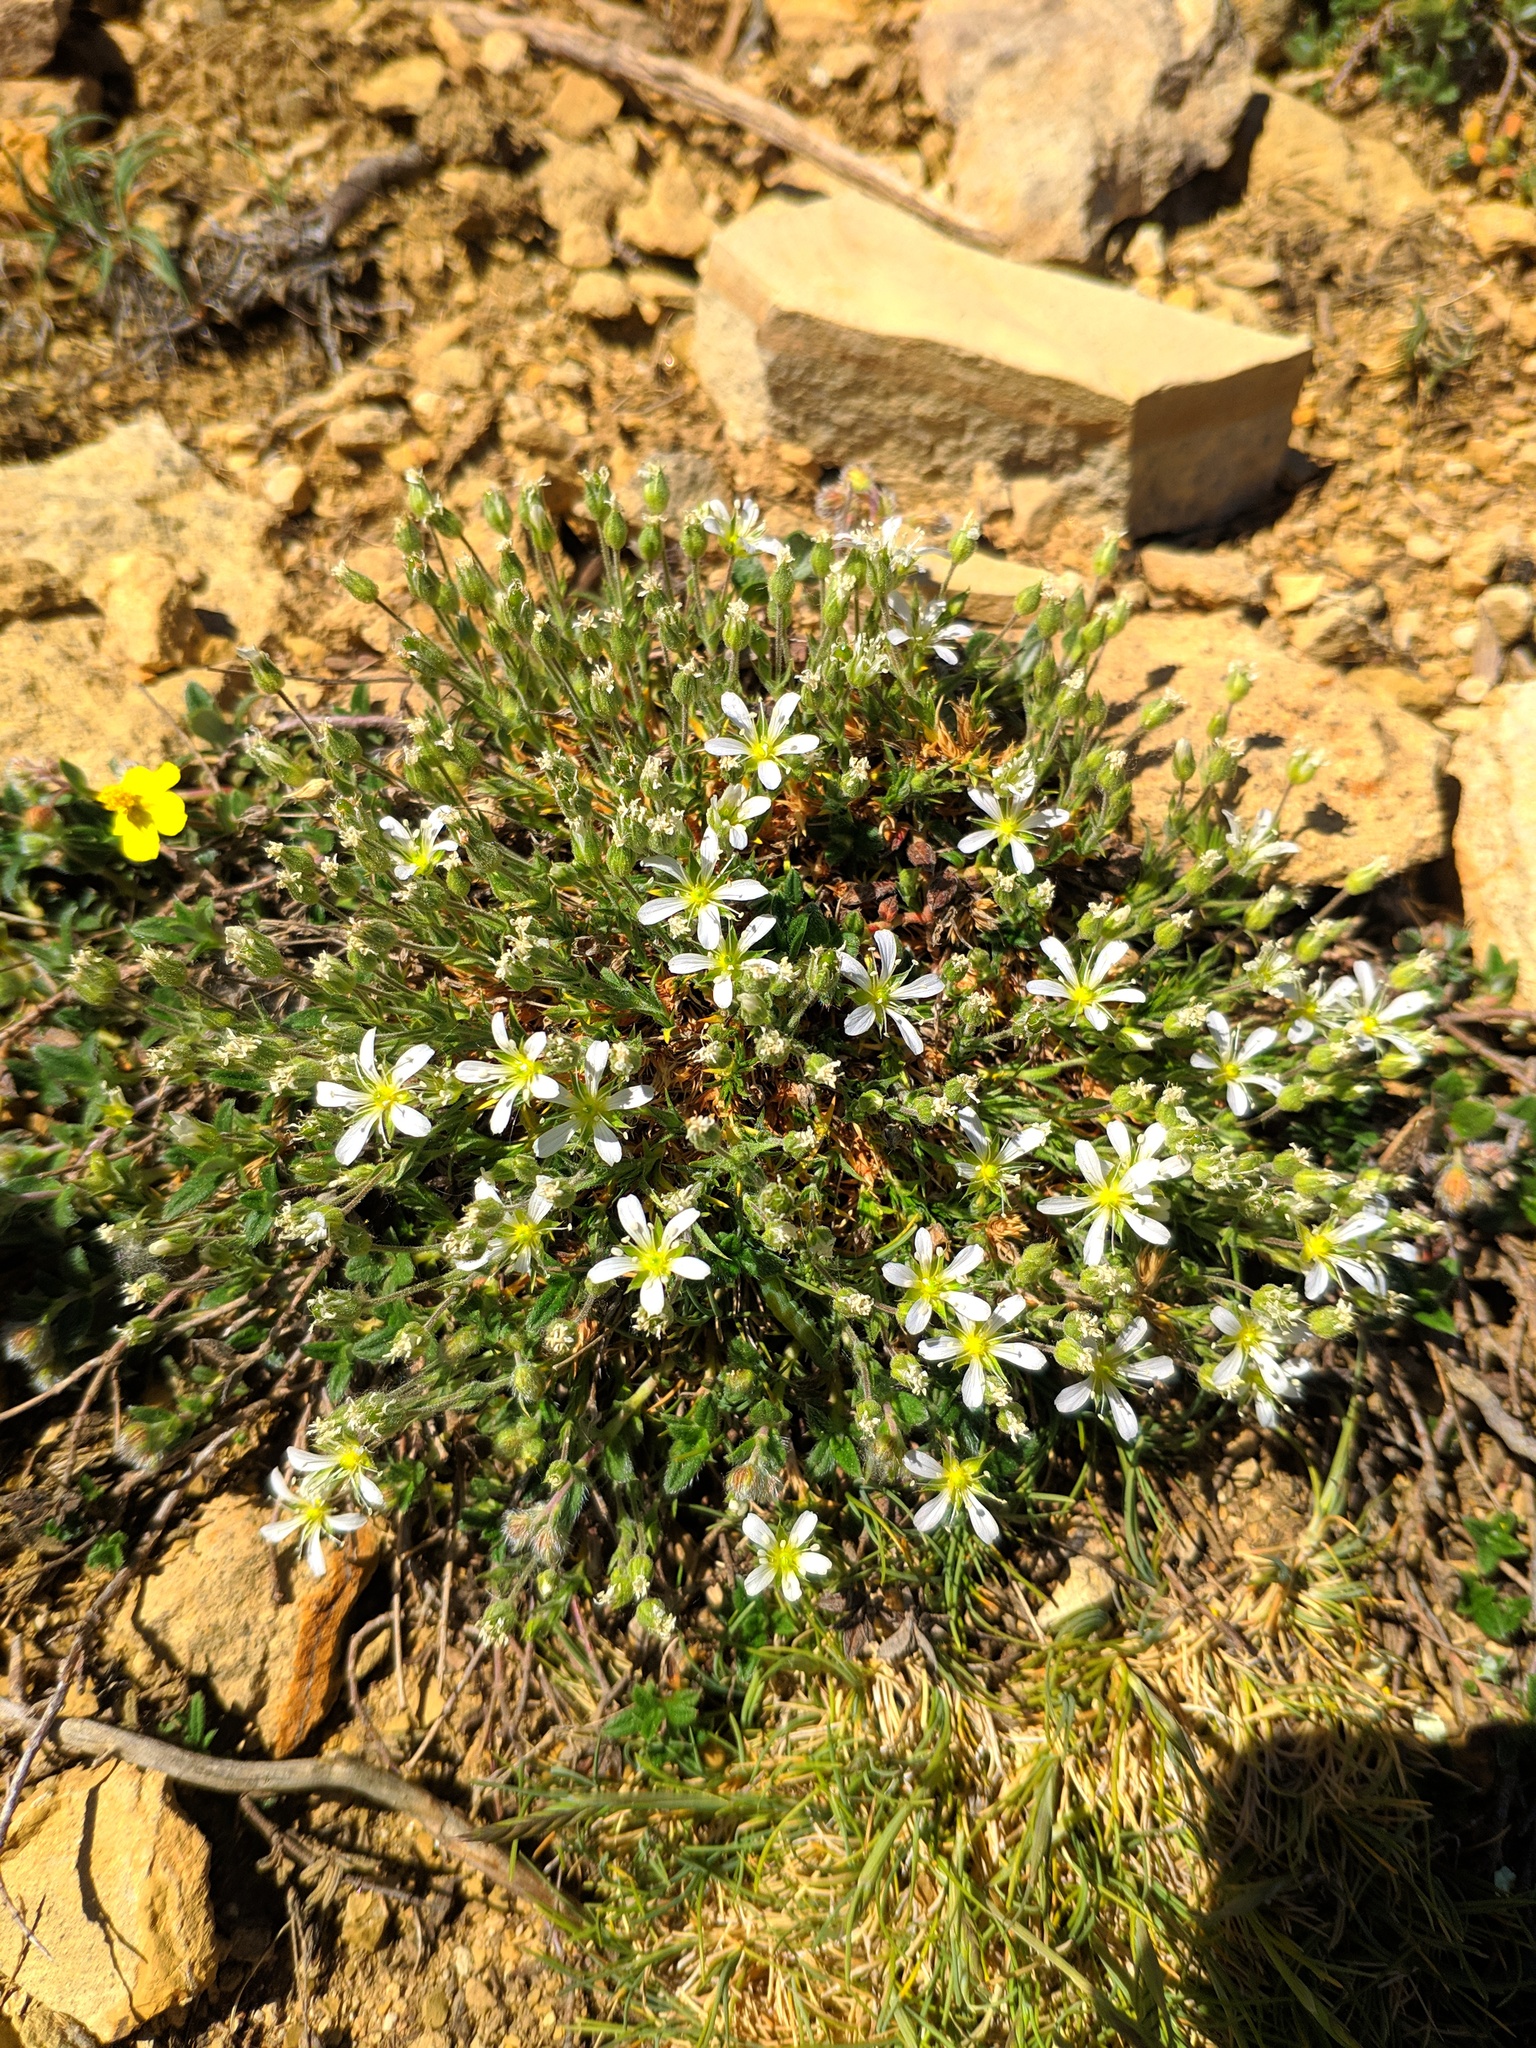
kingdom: Plantae
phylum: Tracheophyta
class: Magnoliopsida
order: Caryophyllales
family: Caryophyllaceae
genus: Arenaria
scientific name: Arenaria grandiflora
